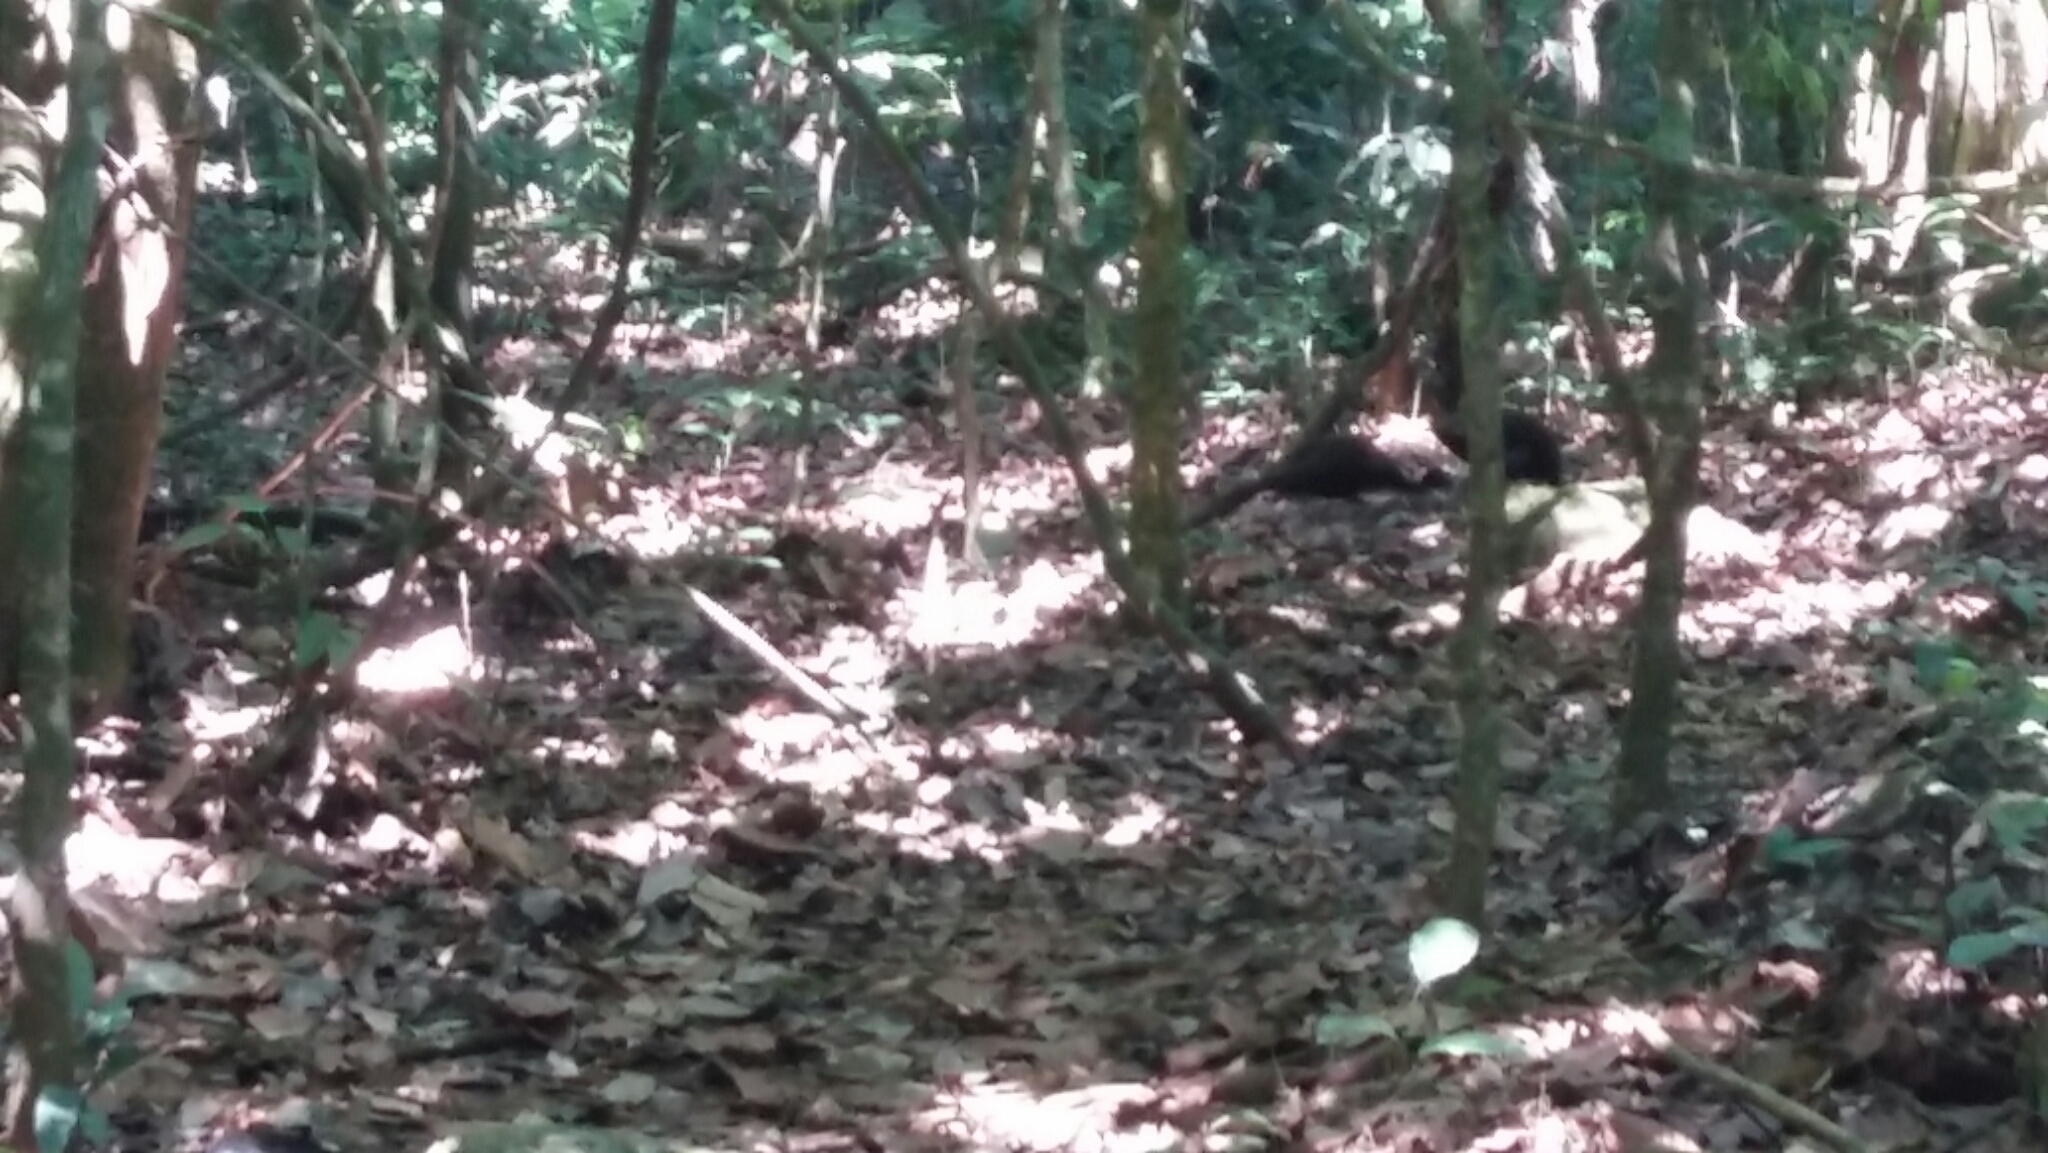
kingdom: Animalia
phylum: Chordata
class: Aves
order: Gruiformes
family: Psophiidae
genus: Psophia
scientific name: Psophia viridis
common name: Dark-winged trumpeter
